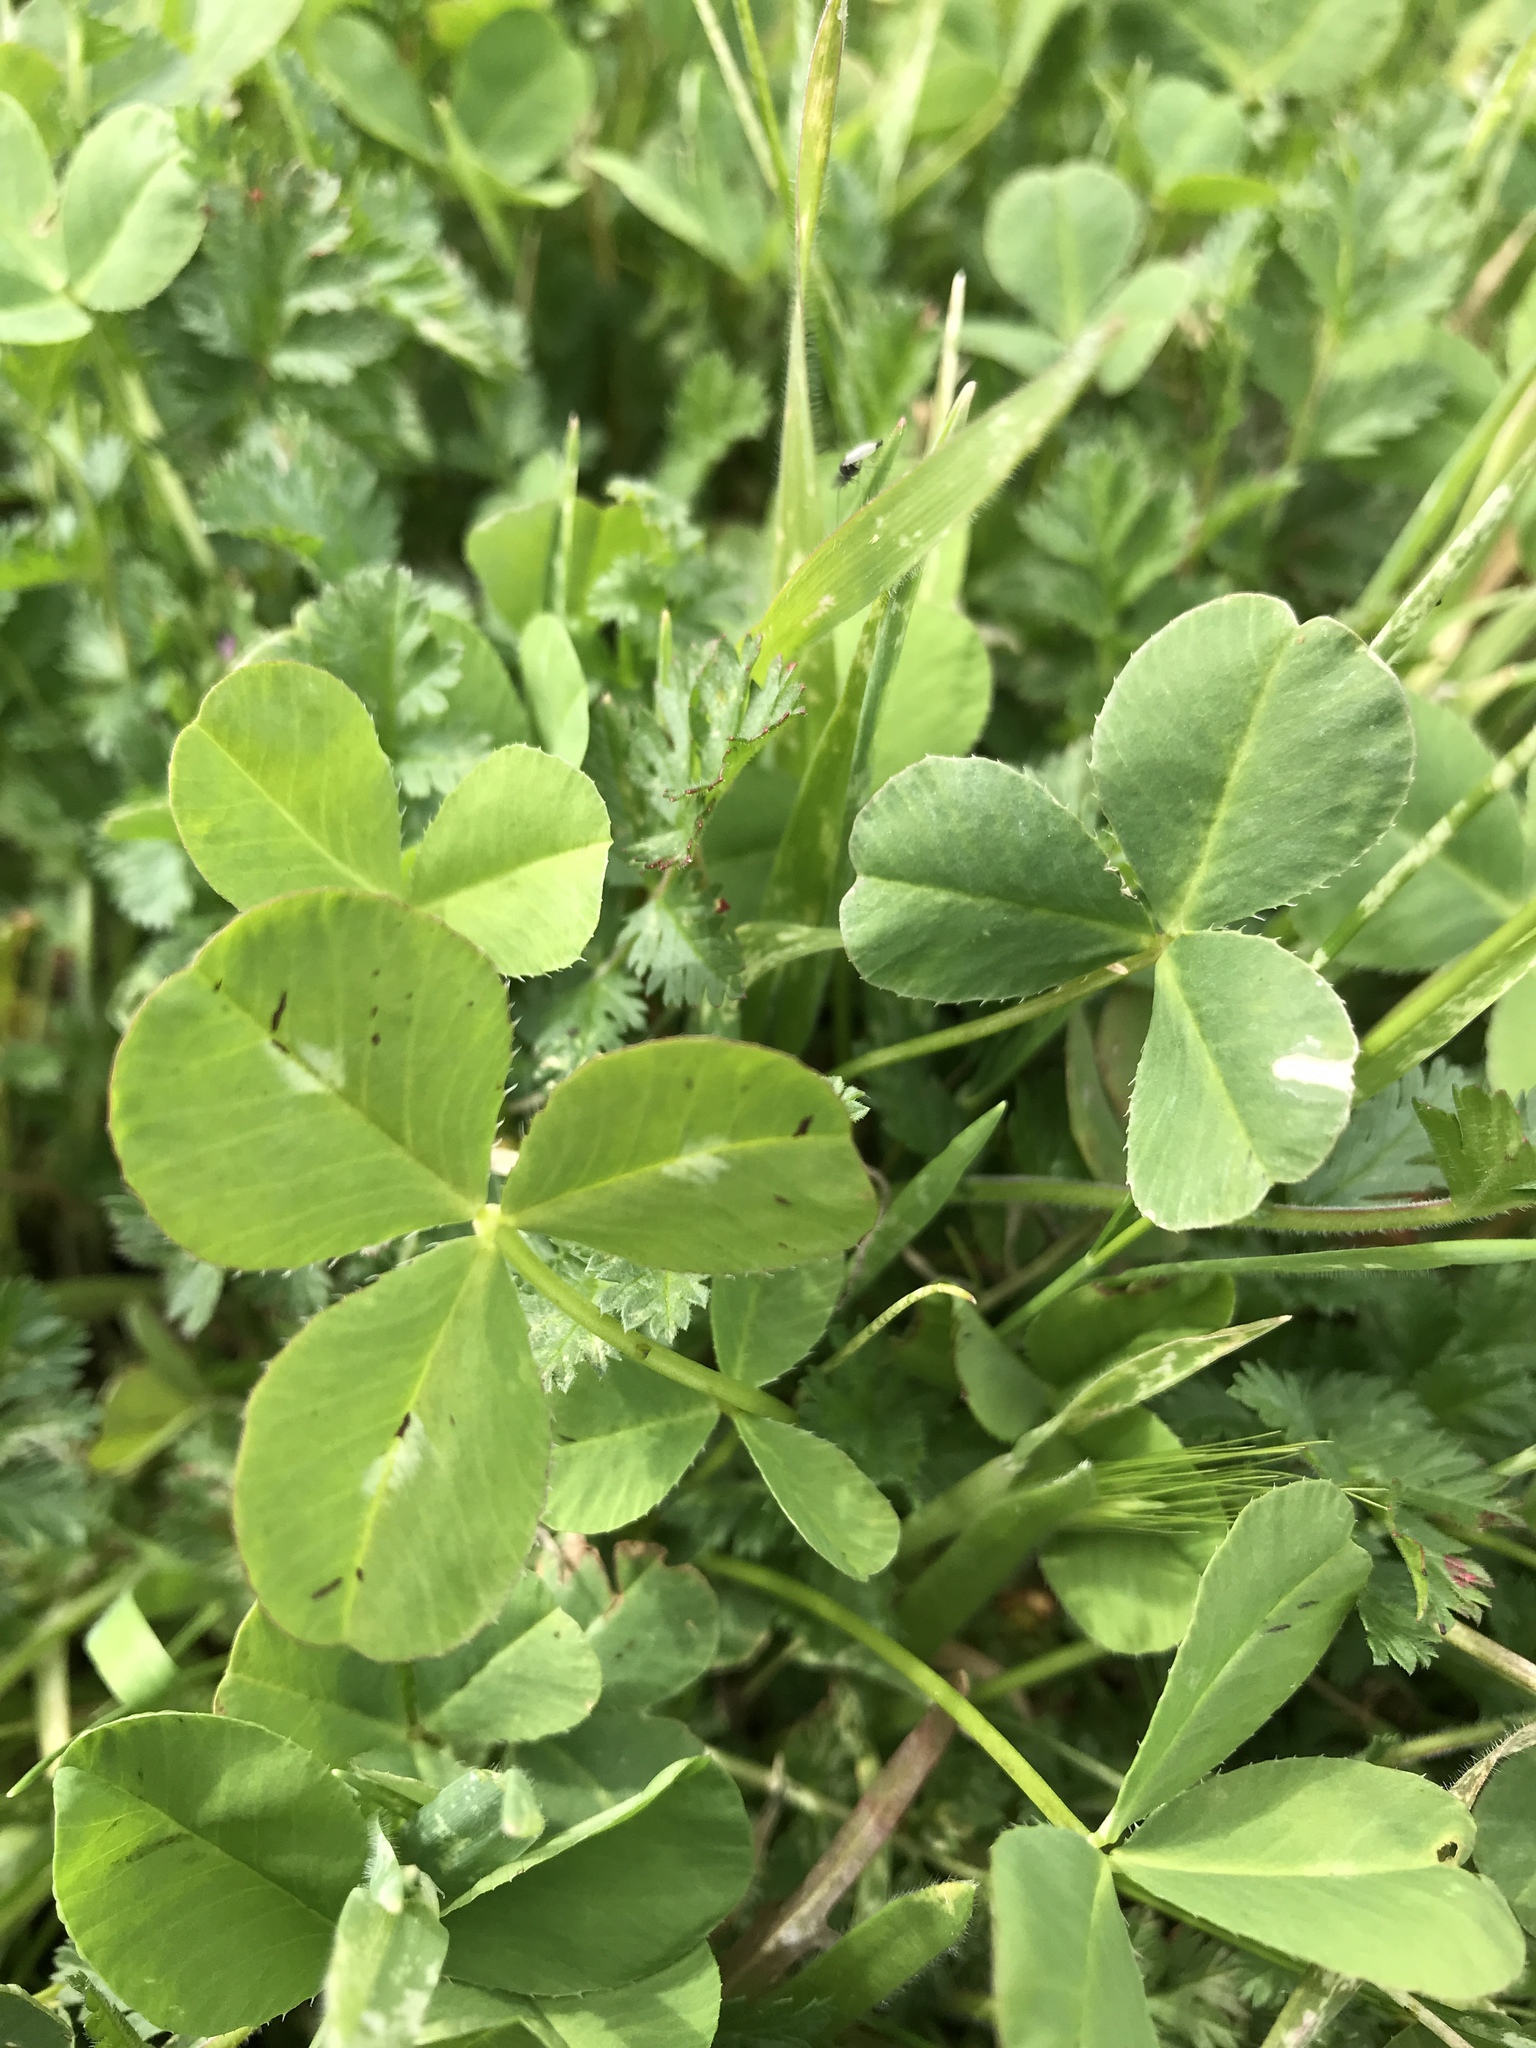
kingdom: Plantae
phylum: Tracheophyta
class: Magnoliopsida
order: Fabales
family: Fabaceae
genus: Trifolium
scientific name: Trifolium repens
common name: White clover
